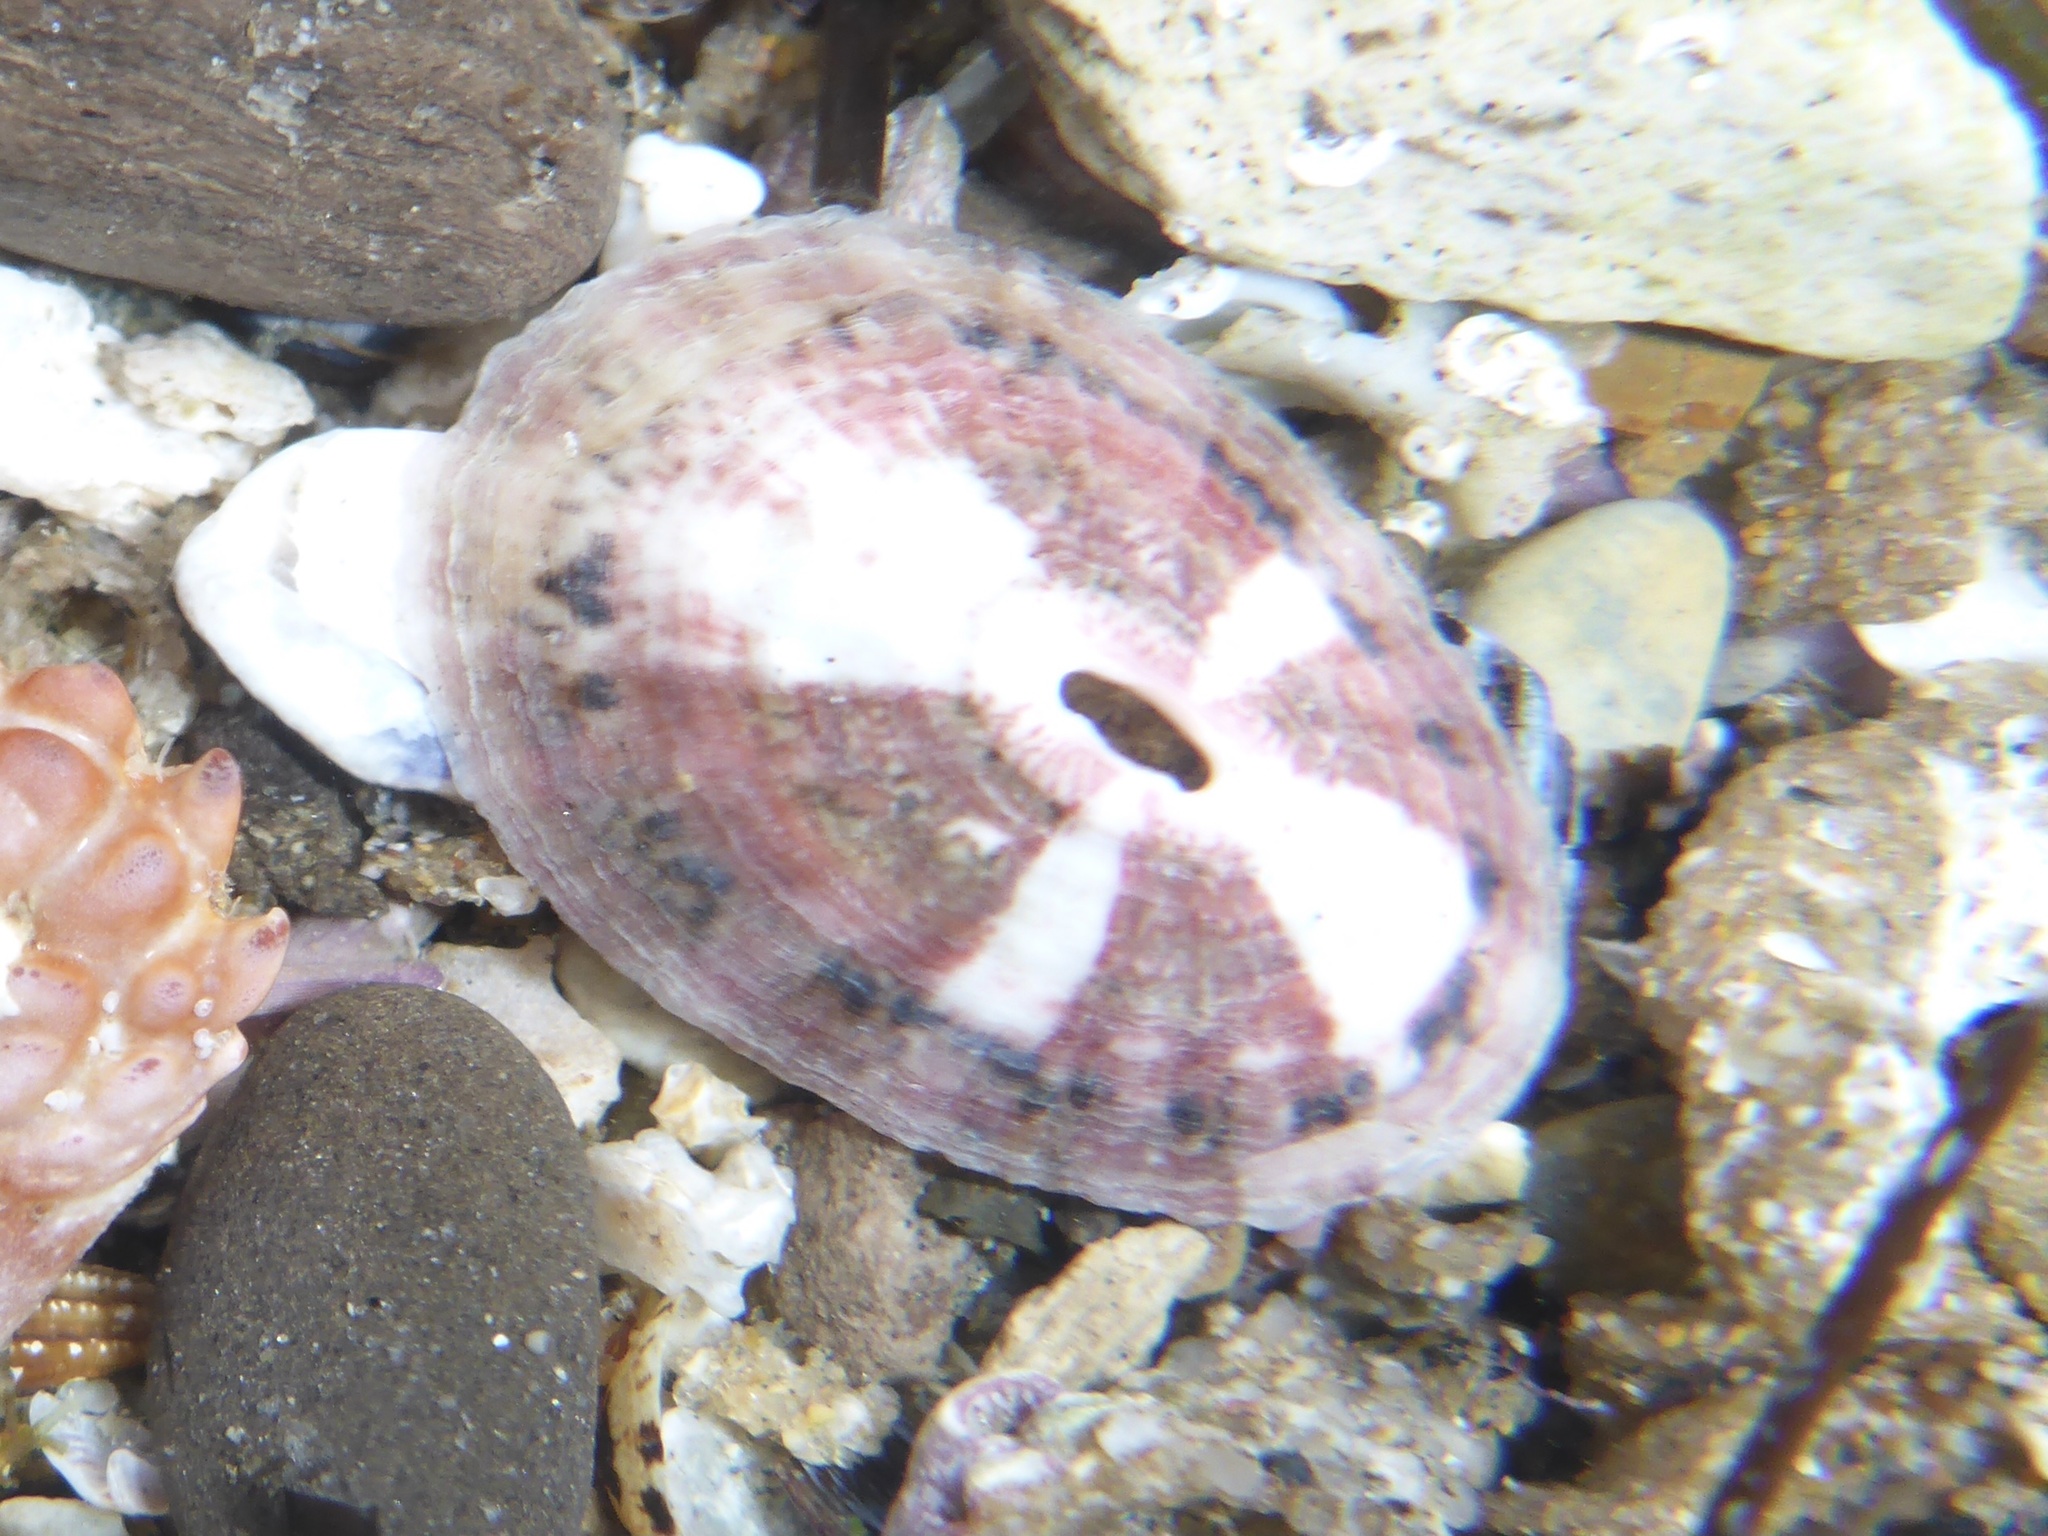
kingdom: Animalia
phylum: Mollusca
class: Gastropoda
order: Lepetellida
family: Fissurellidae
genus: Fissurella
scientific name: Fissurella volcano
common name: Volcano keyhole limpet
